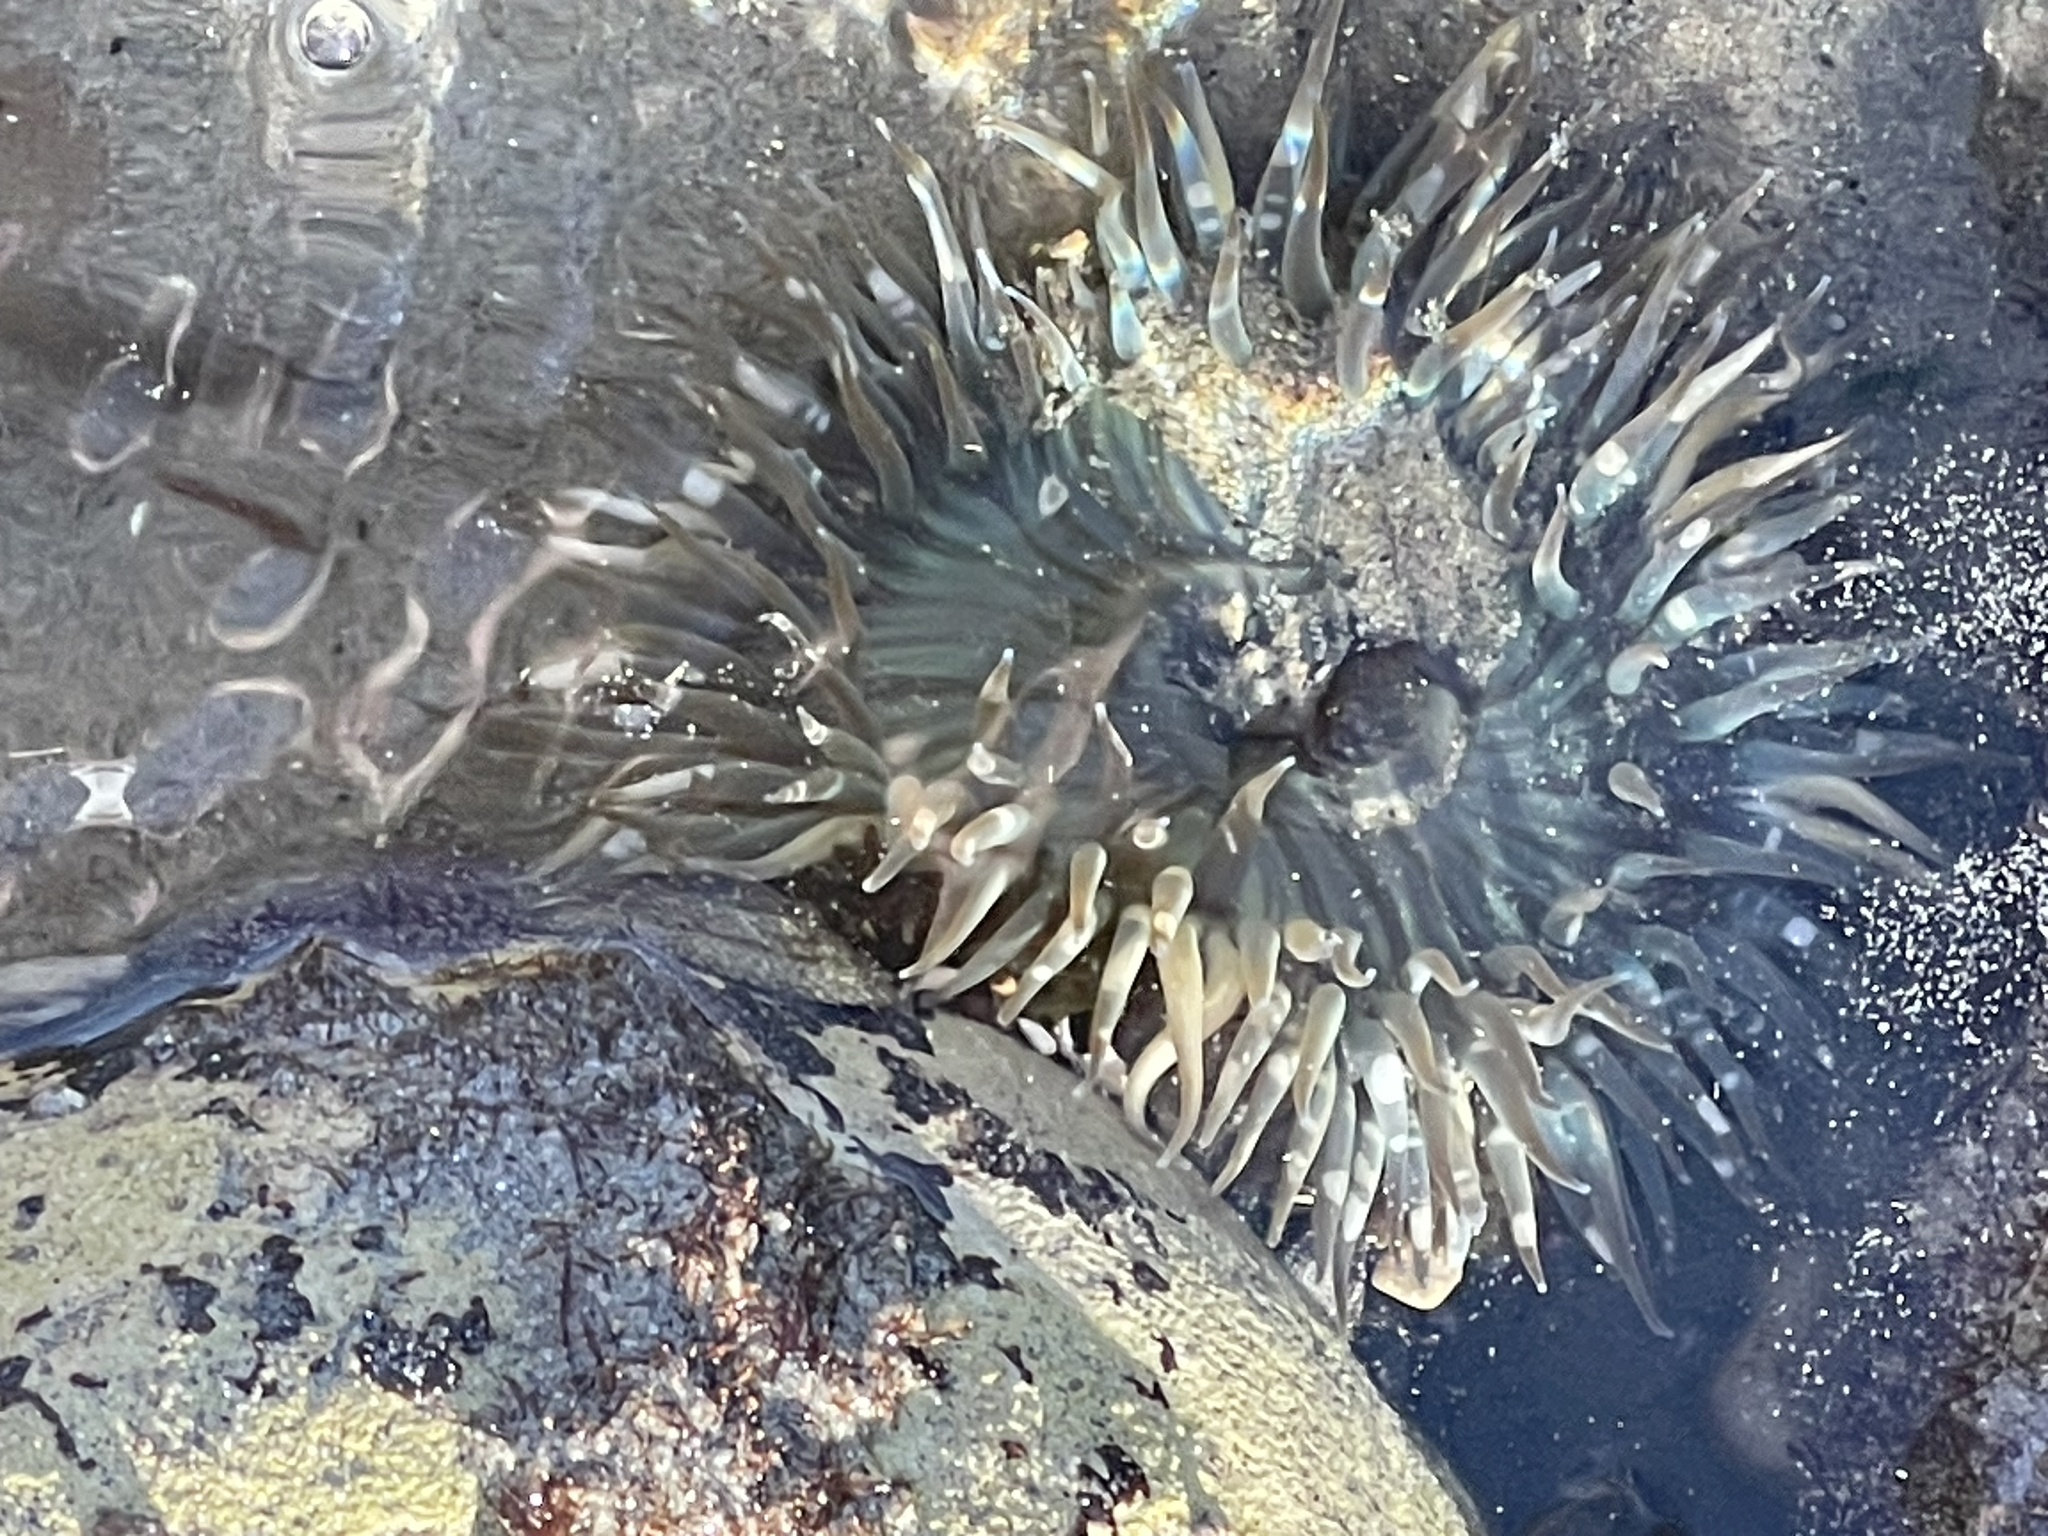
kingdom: Animalia
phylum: Cnidaria
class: Anthozoa
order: Actiniaria
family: Actiniidae
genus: Anthopleura
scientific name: Anthopleura sola
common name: Sun anemone
